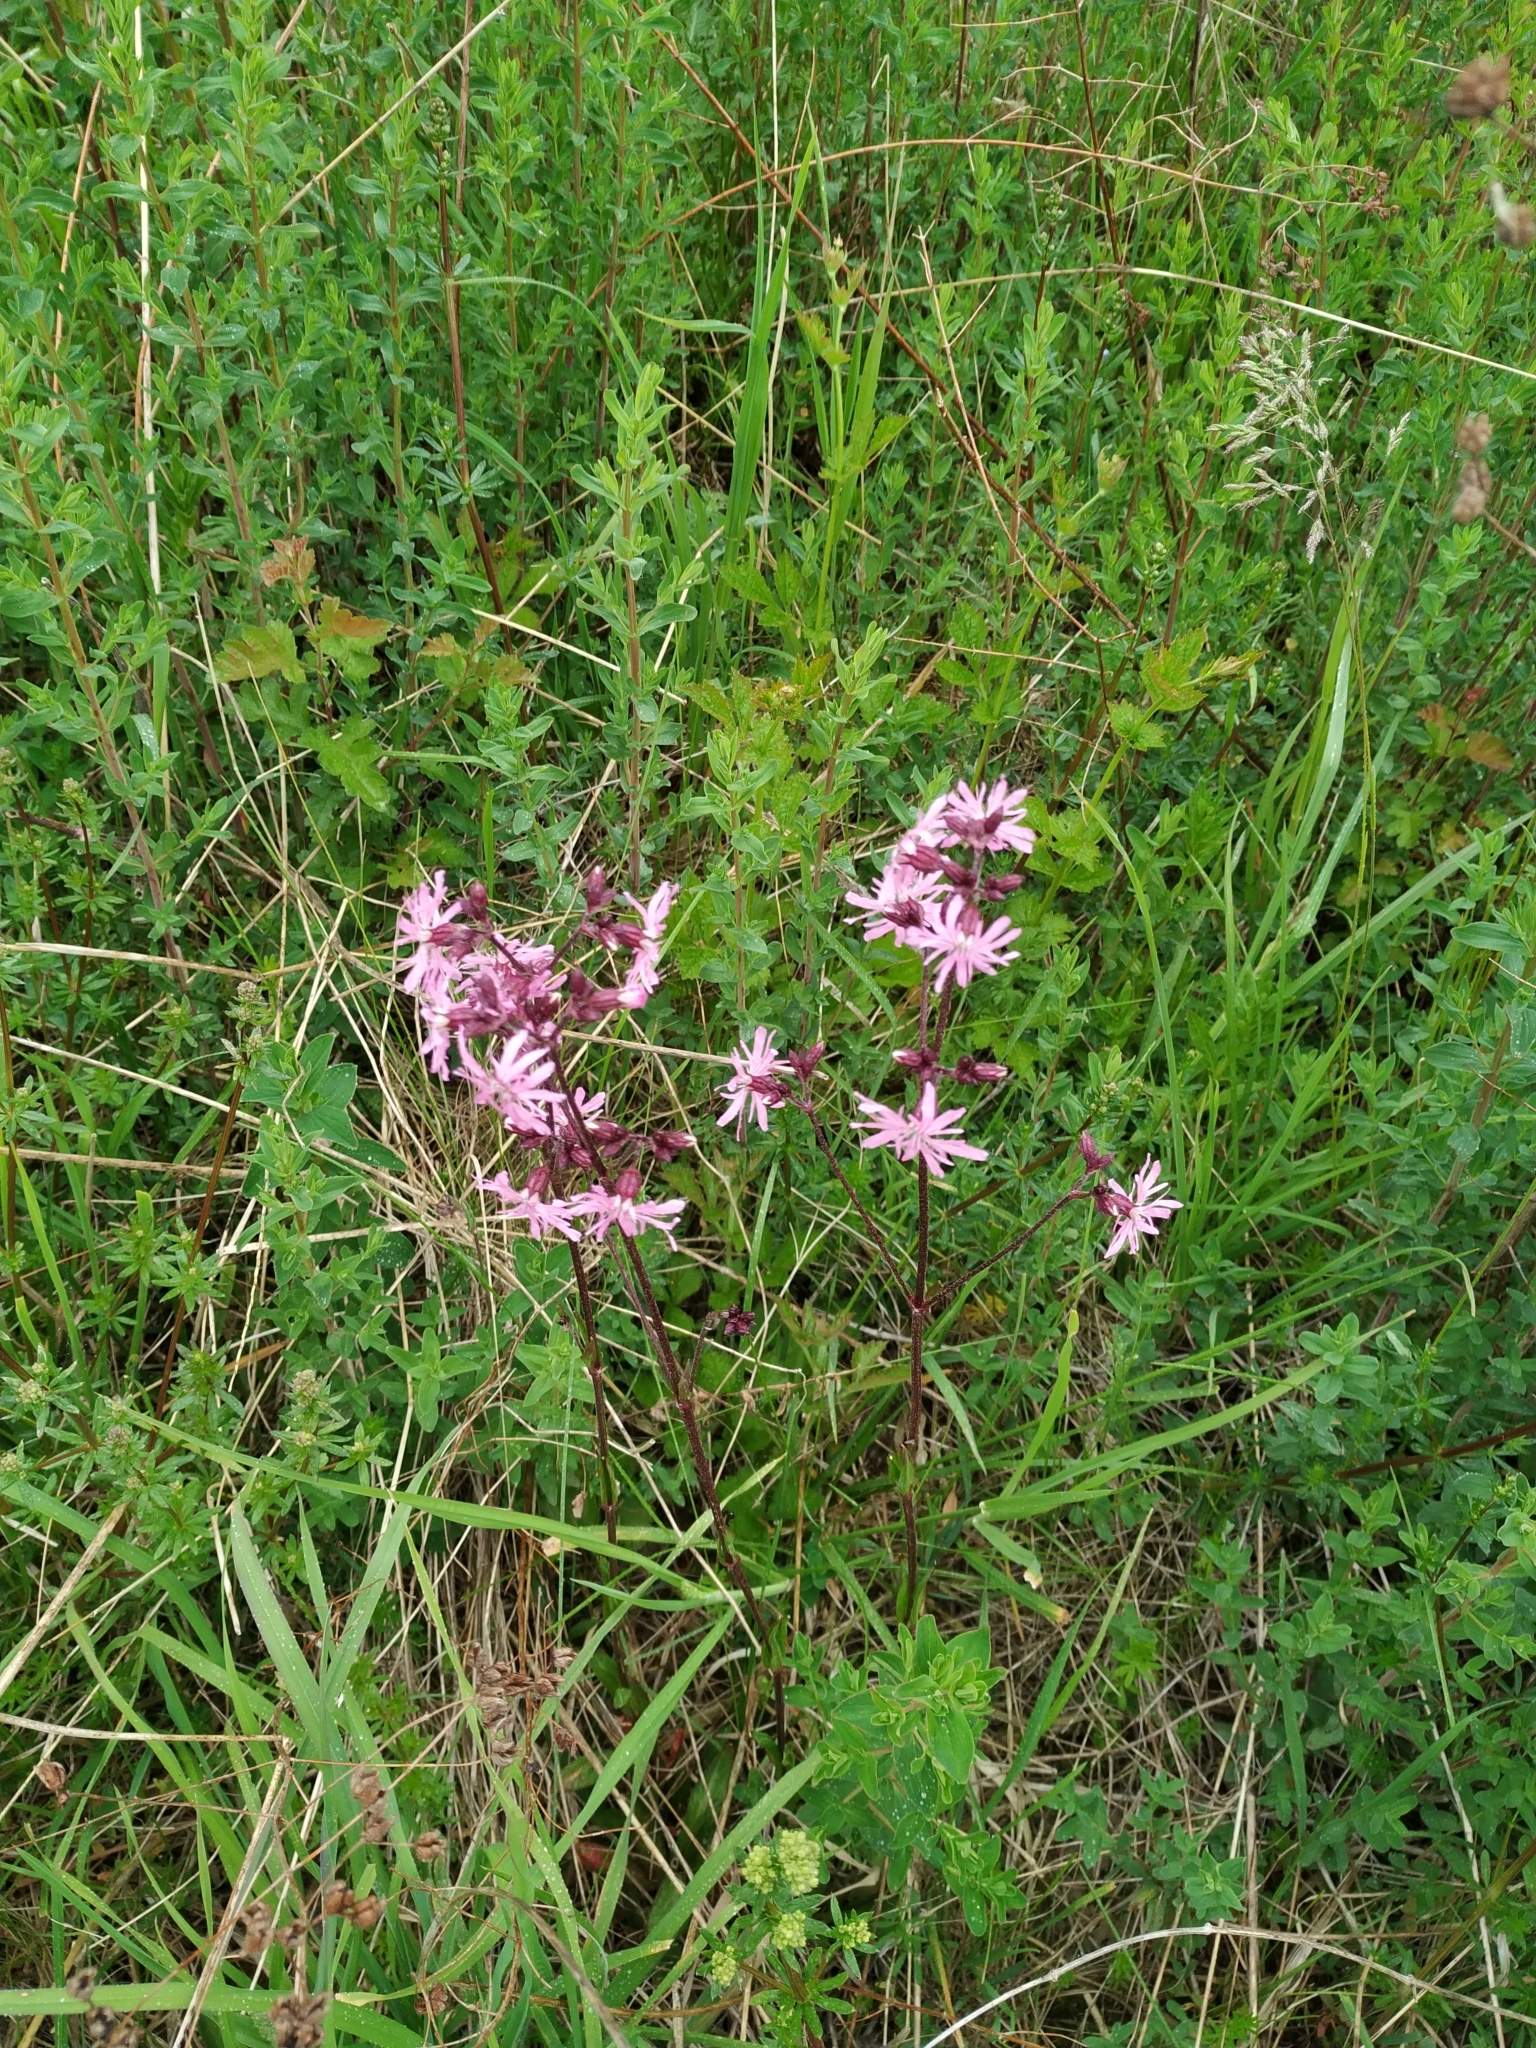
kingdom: Plantae
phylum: Tracheophyta
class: Magnoliopsida
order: Caryophyllales
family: Caryophyllaceae
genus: Silene
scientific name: Silene flos-cuculi
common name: Ragged-robin
